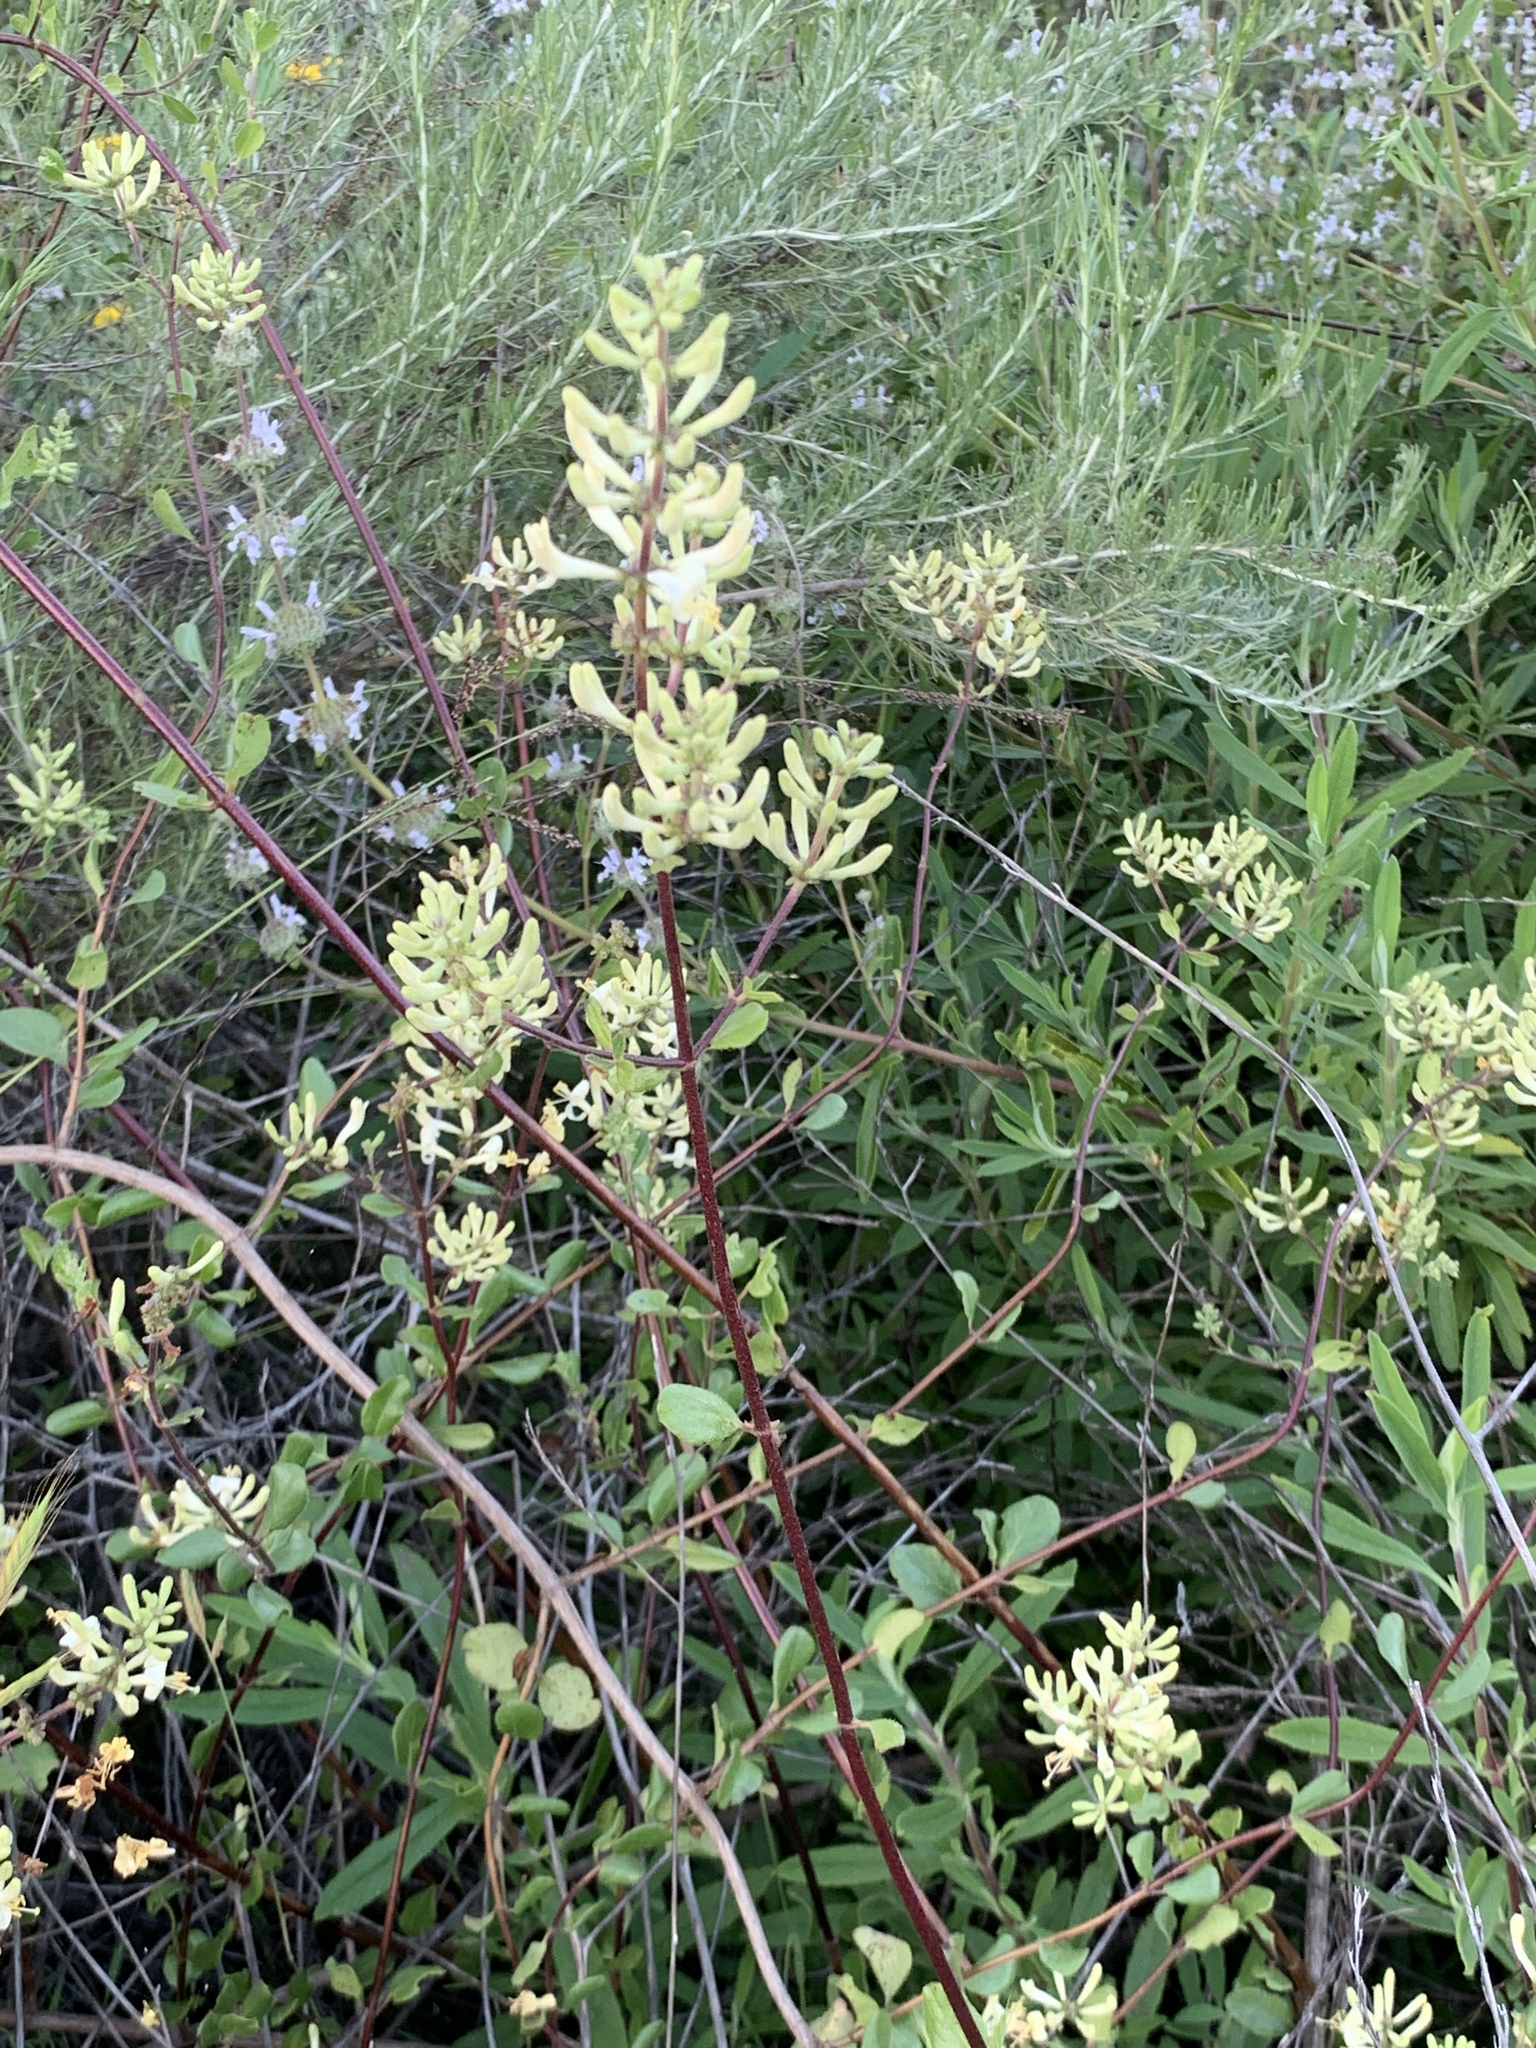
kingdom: Plantae
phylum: Tracheophyta
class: Magnoliopsida
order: Dipsacales
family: Caprifoliaceae
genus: Lonicera
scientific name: Lonicera subspicata
